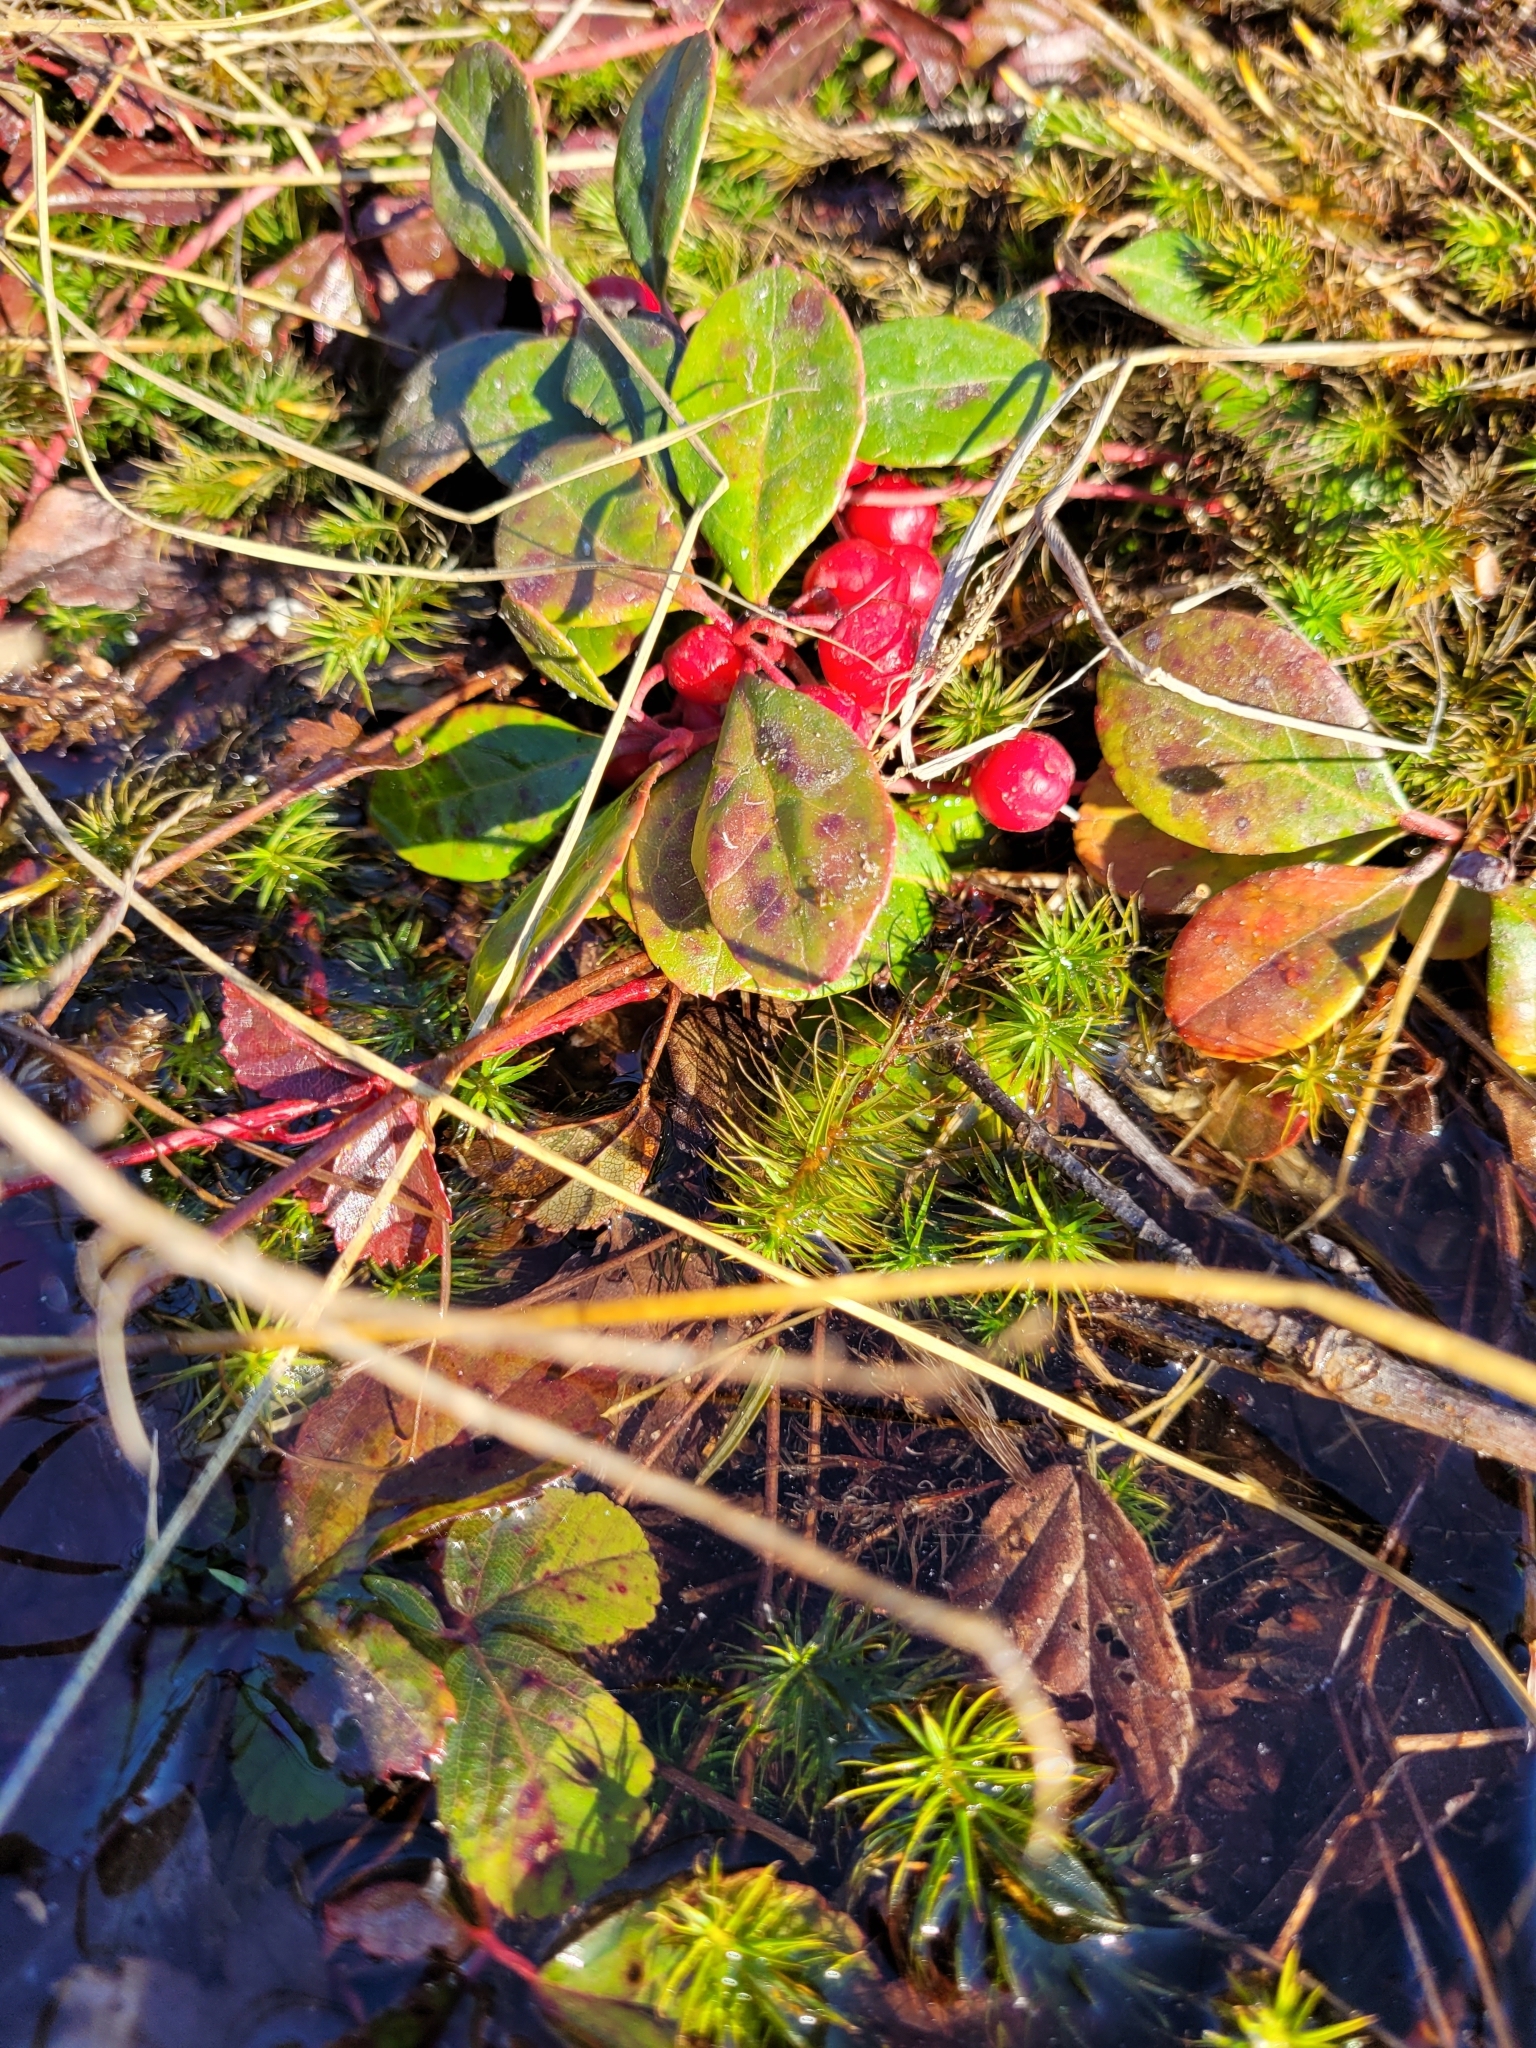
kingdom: Plantae
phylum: Tracheophyta
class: Magnoliopsida
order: Ericales
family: Ericaceae
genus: Gaultheria
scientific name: Gaultheria procumbens
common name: Checkerberry
